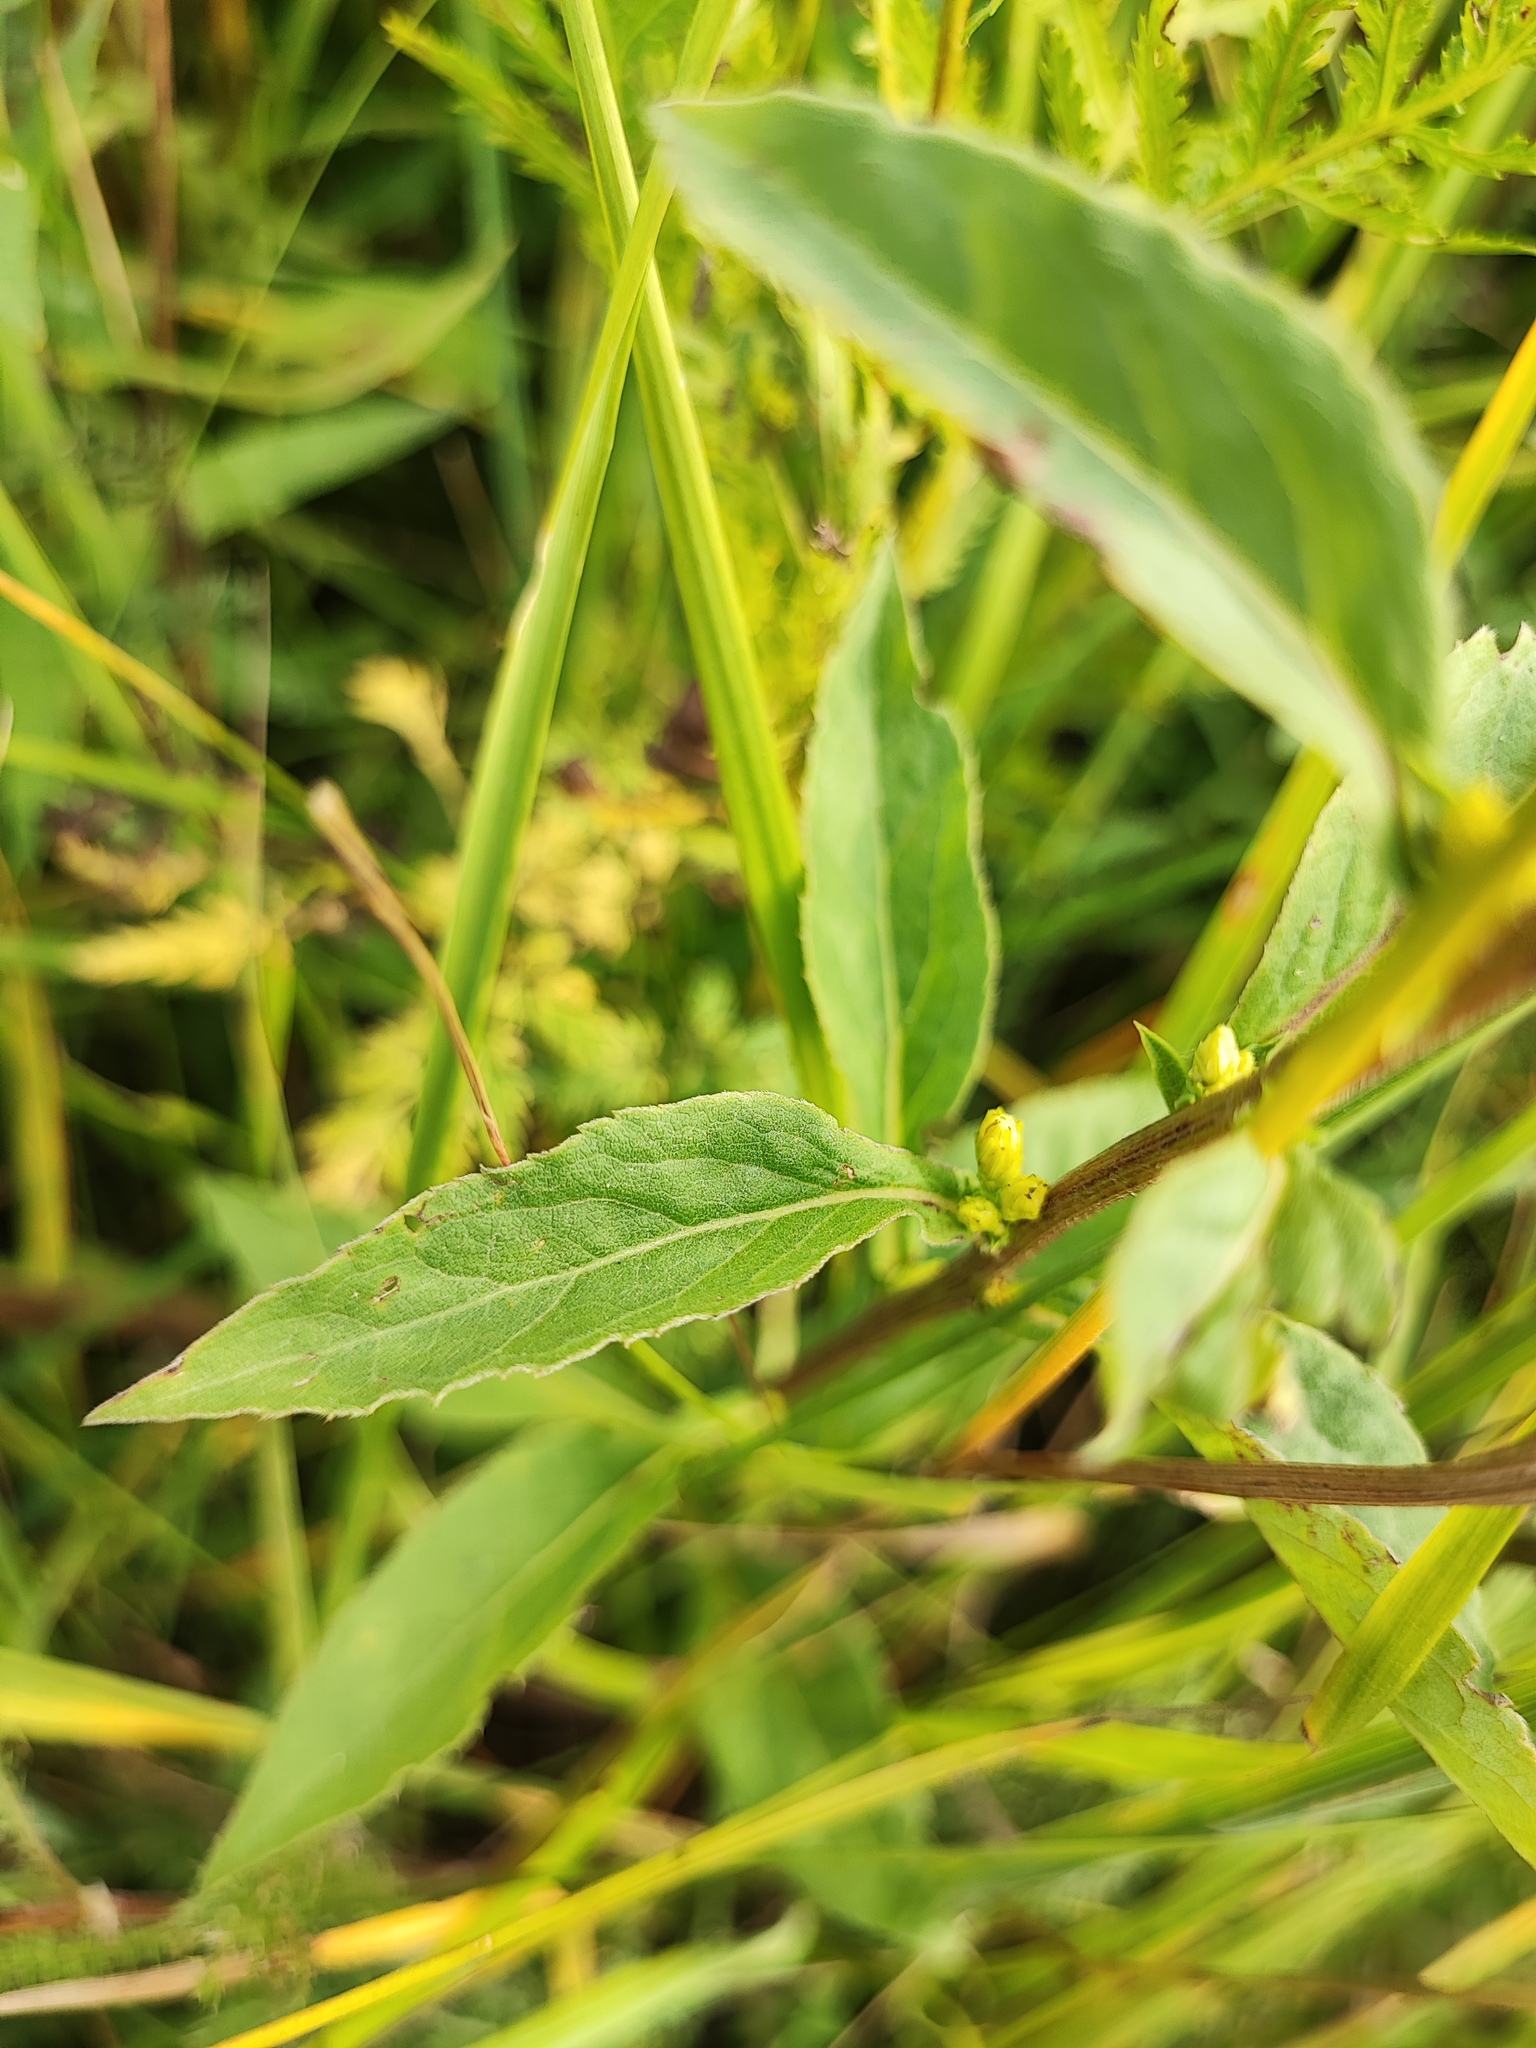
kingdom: Plantae
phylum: Tracheophyta
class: Magnoliopsida
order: Asterales
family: Asteraceae
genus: Solidago
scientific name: Solidago virgaurea
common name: Goldenrod
